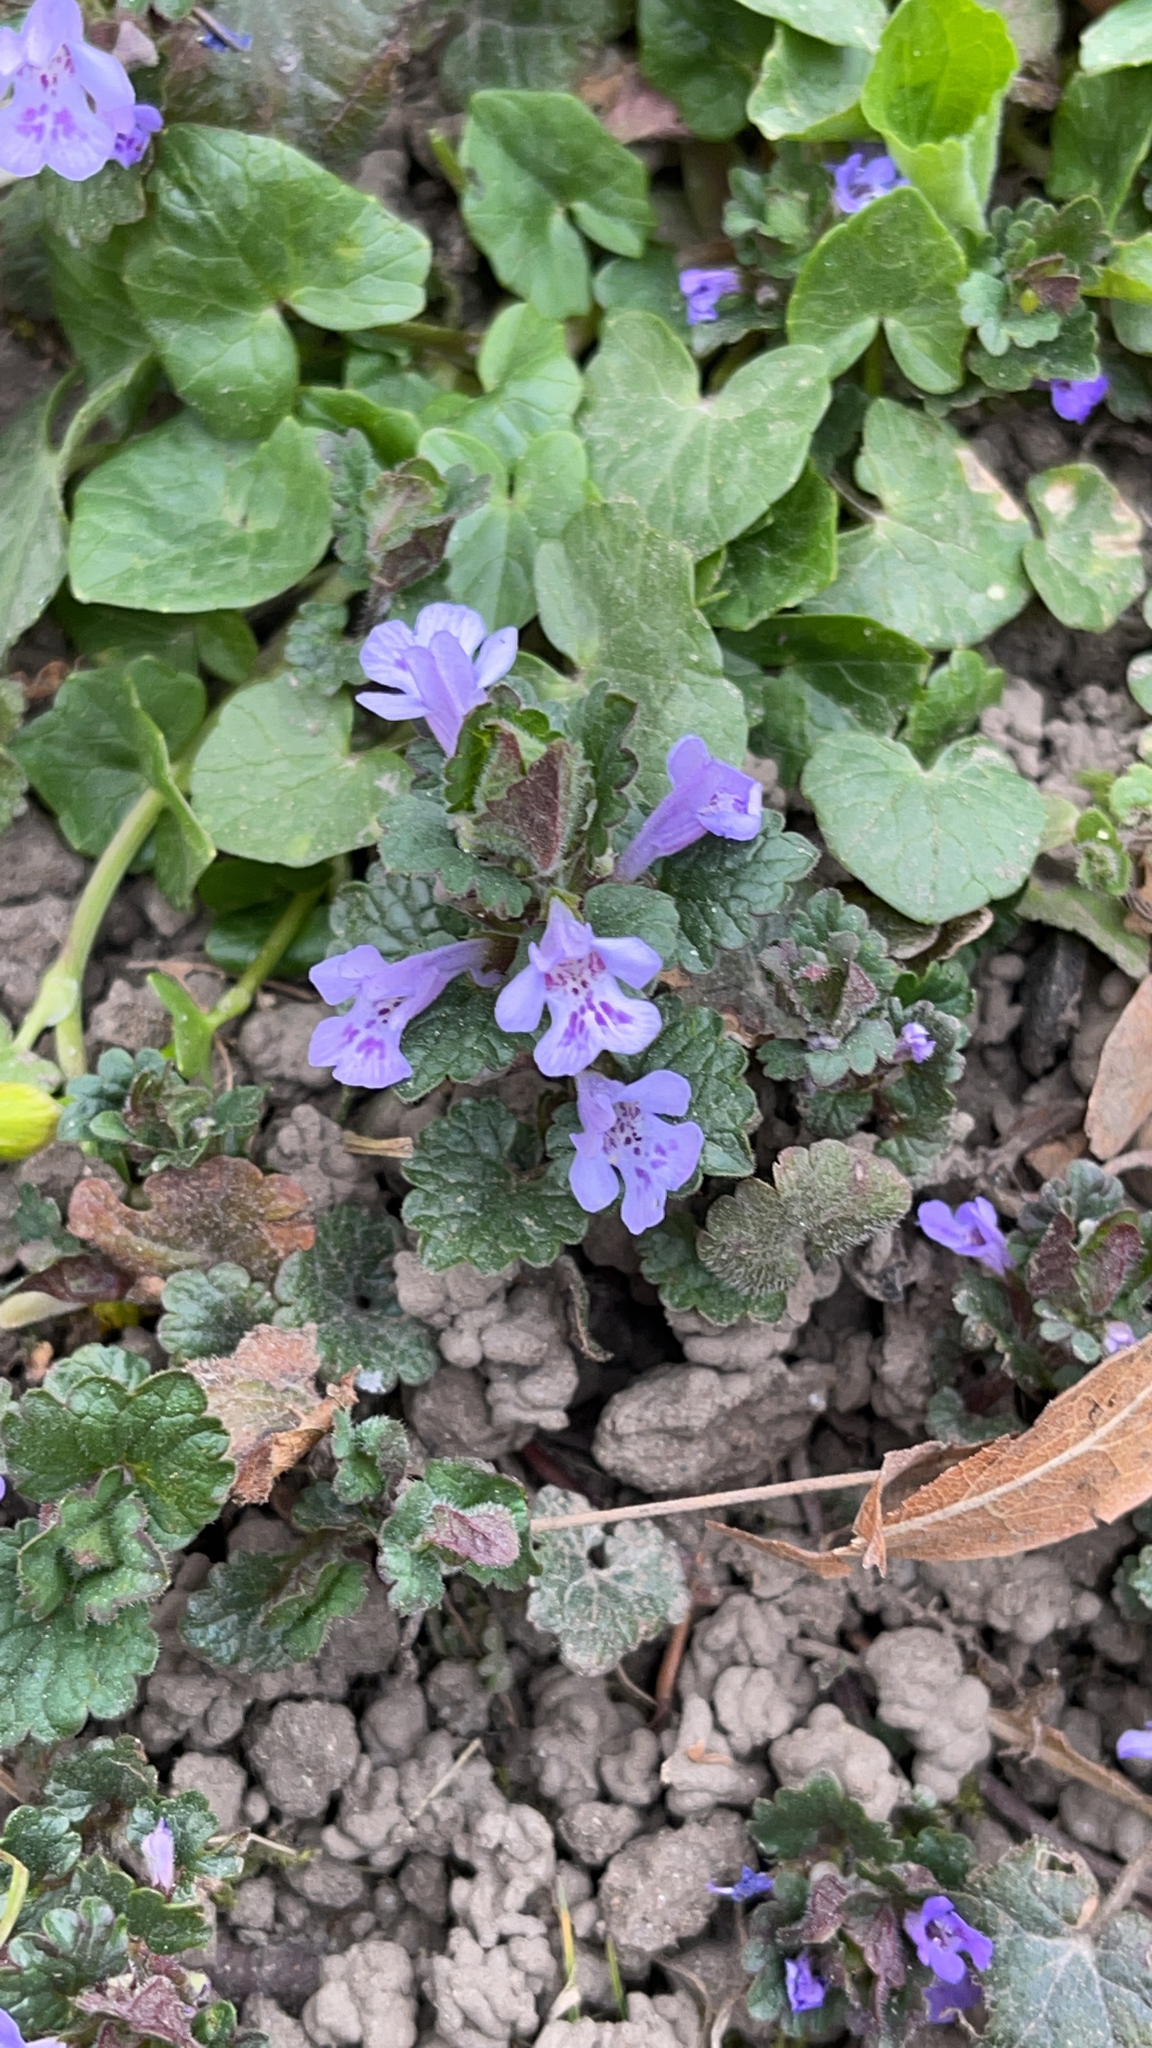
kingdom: Plantae
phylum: Tracheophyta
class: Magnoliopsida
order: Lamiales
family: Lamiaceae
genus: Glechoma
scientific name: Glechoma hederacea
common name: Ground ivy
